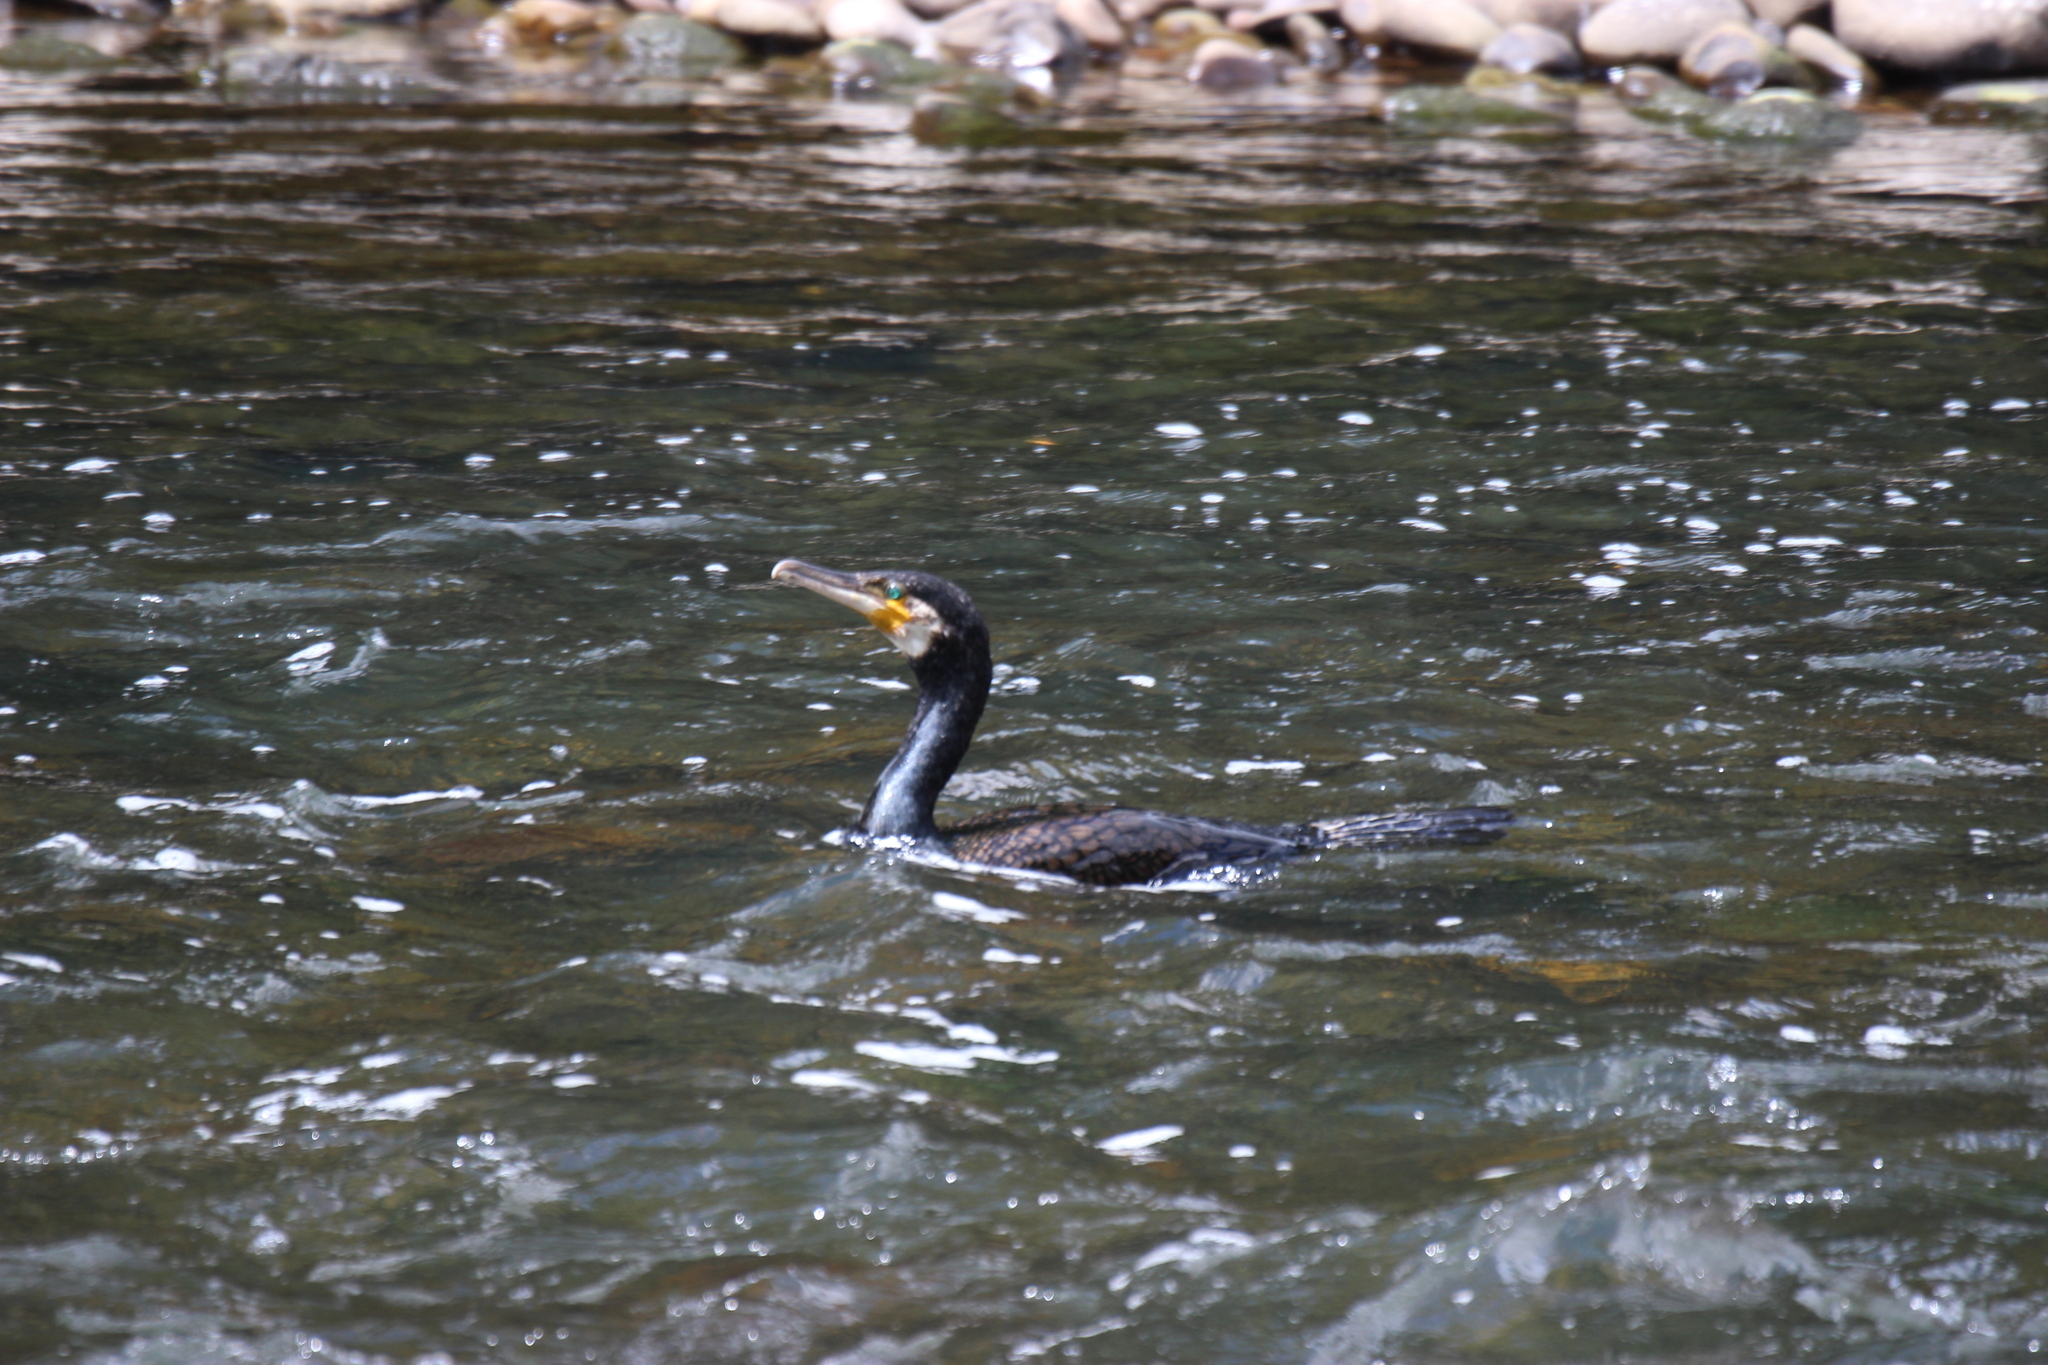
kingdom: Animalia
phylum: Chordata
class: Aves
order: Suliformes
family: Phalacrocoracidae
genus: Phalacrocorax
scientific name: Phalacrocorax carbo
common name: Great cormorant
